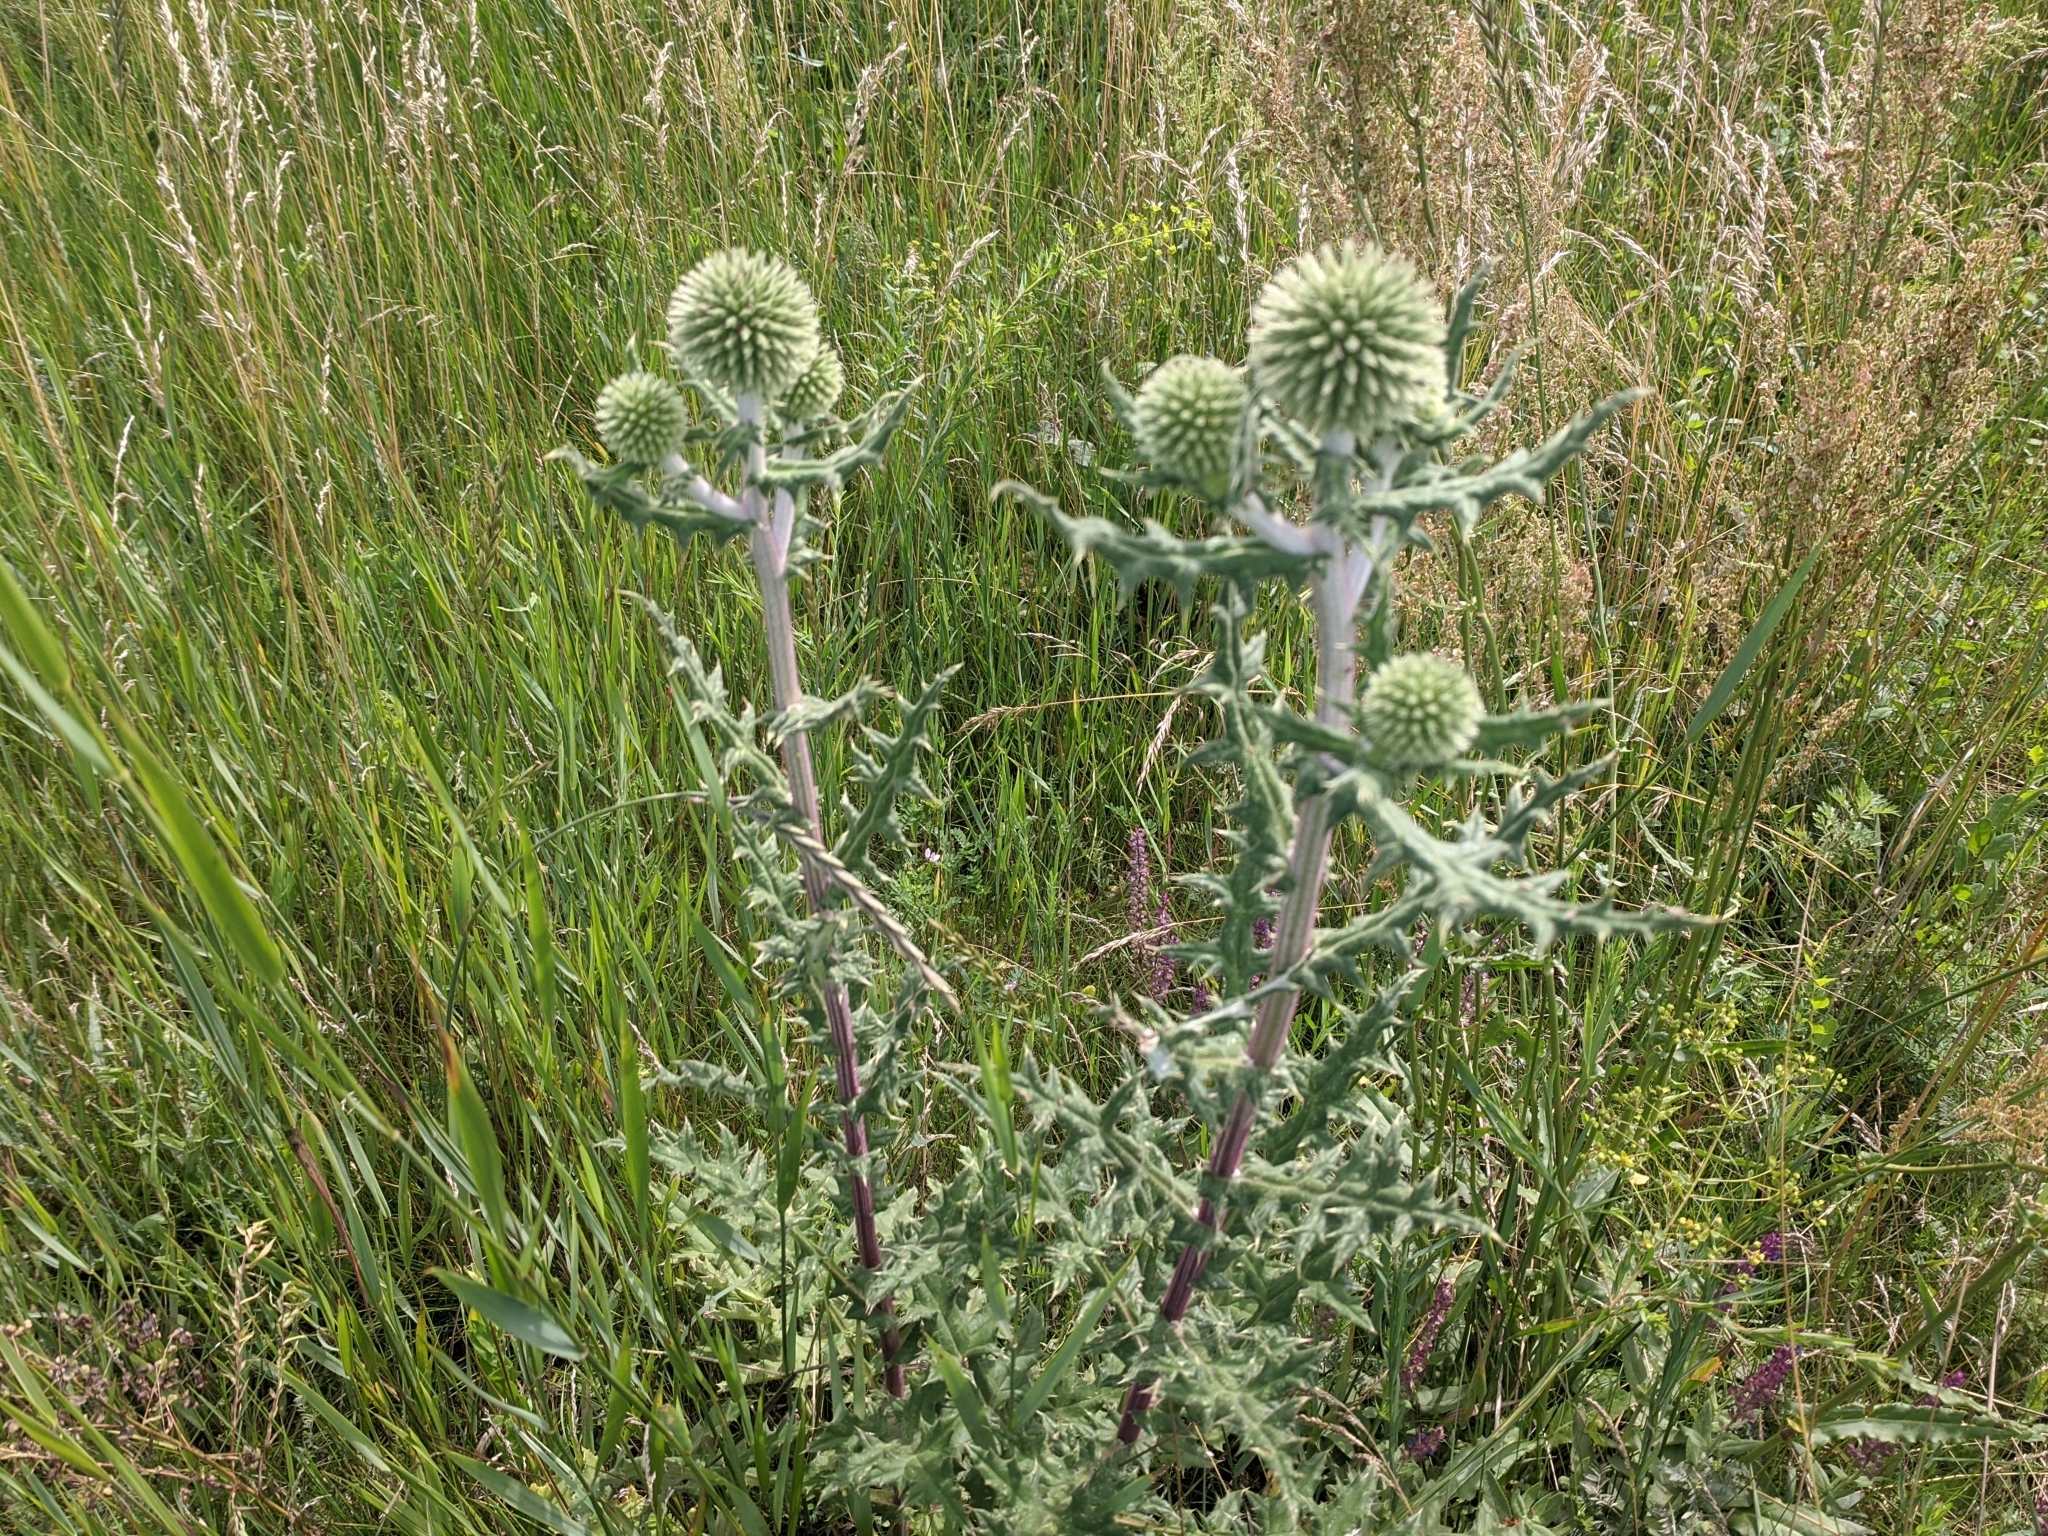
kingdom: Plantae
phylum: Tracheophyta
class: Magnoliopsida
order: Asterales
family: Asteraceae
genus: Echinops
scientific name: Echinops sphaerocephalus
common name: Glandular globe-thistle
